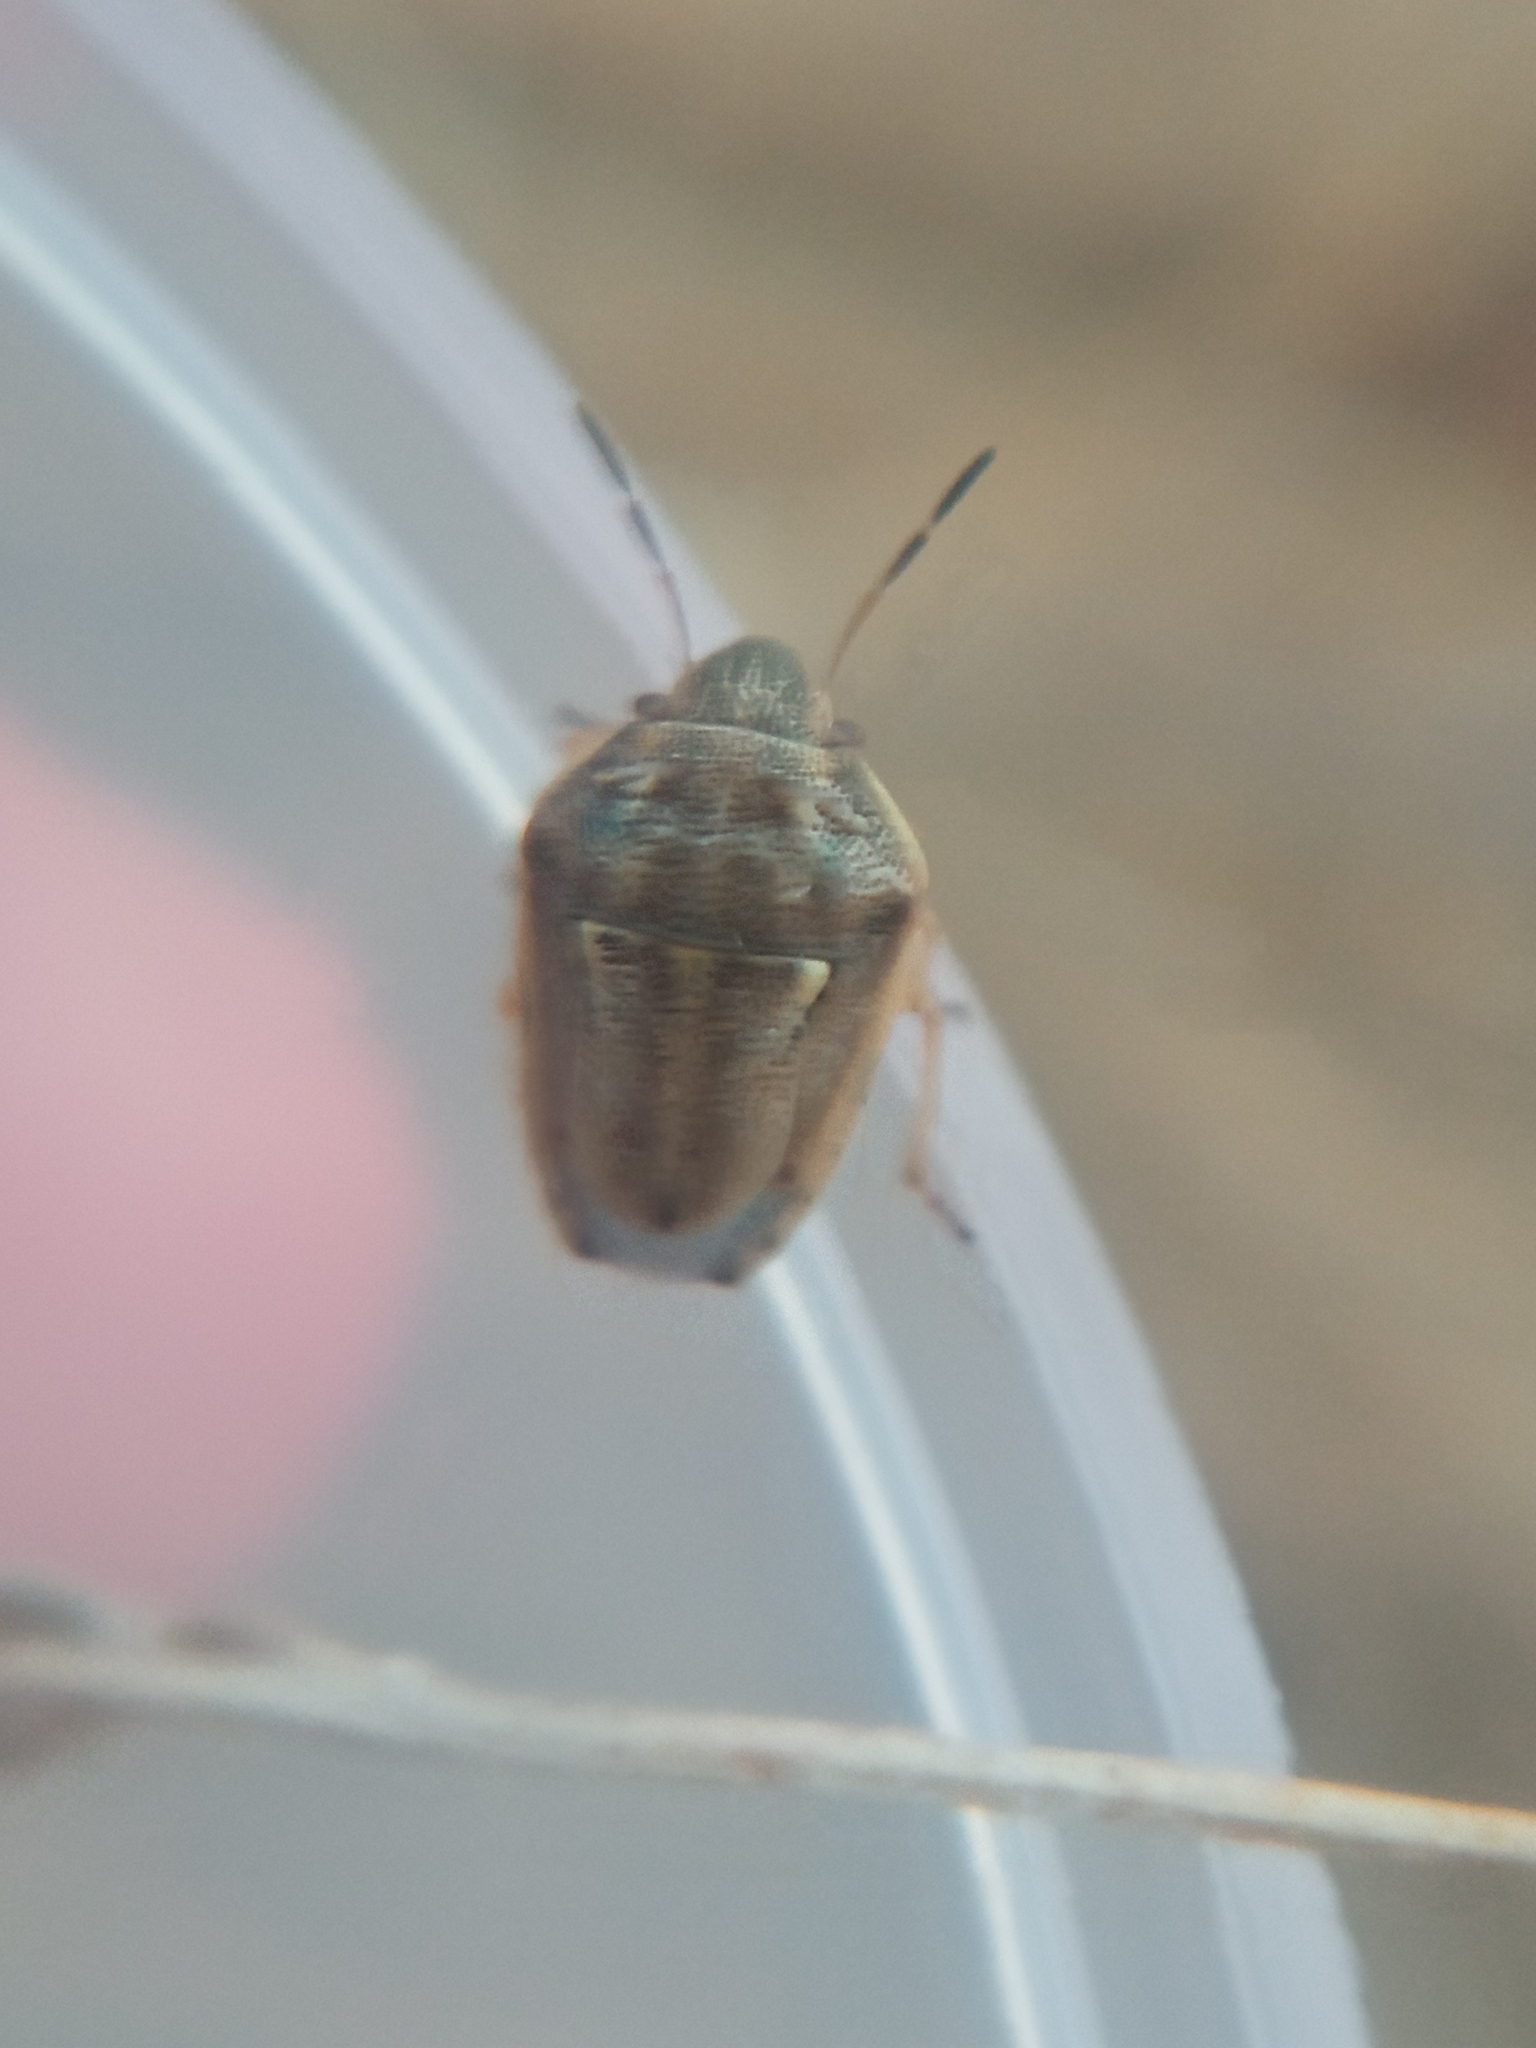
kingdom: Animalia
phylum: Arthropoda
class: Insecta
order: Hemiptera
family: Pentatomidae
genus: Neottiglossa
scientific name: Neottiglossa leporina
